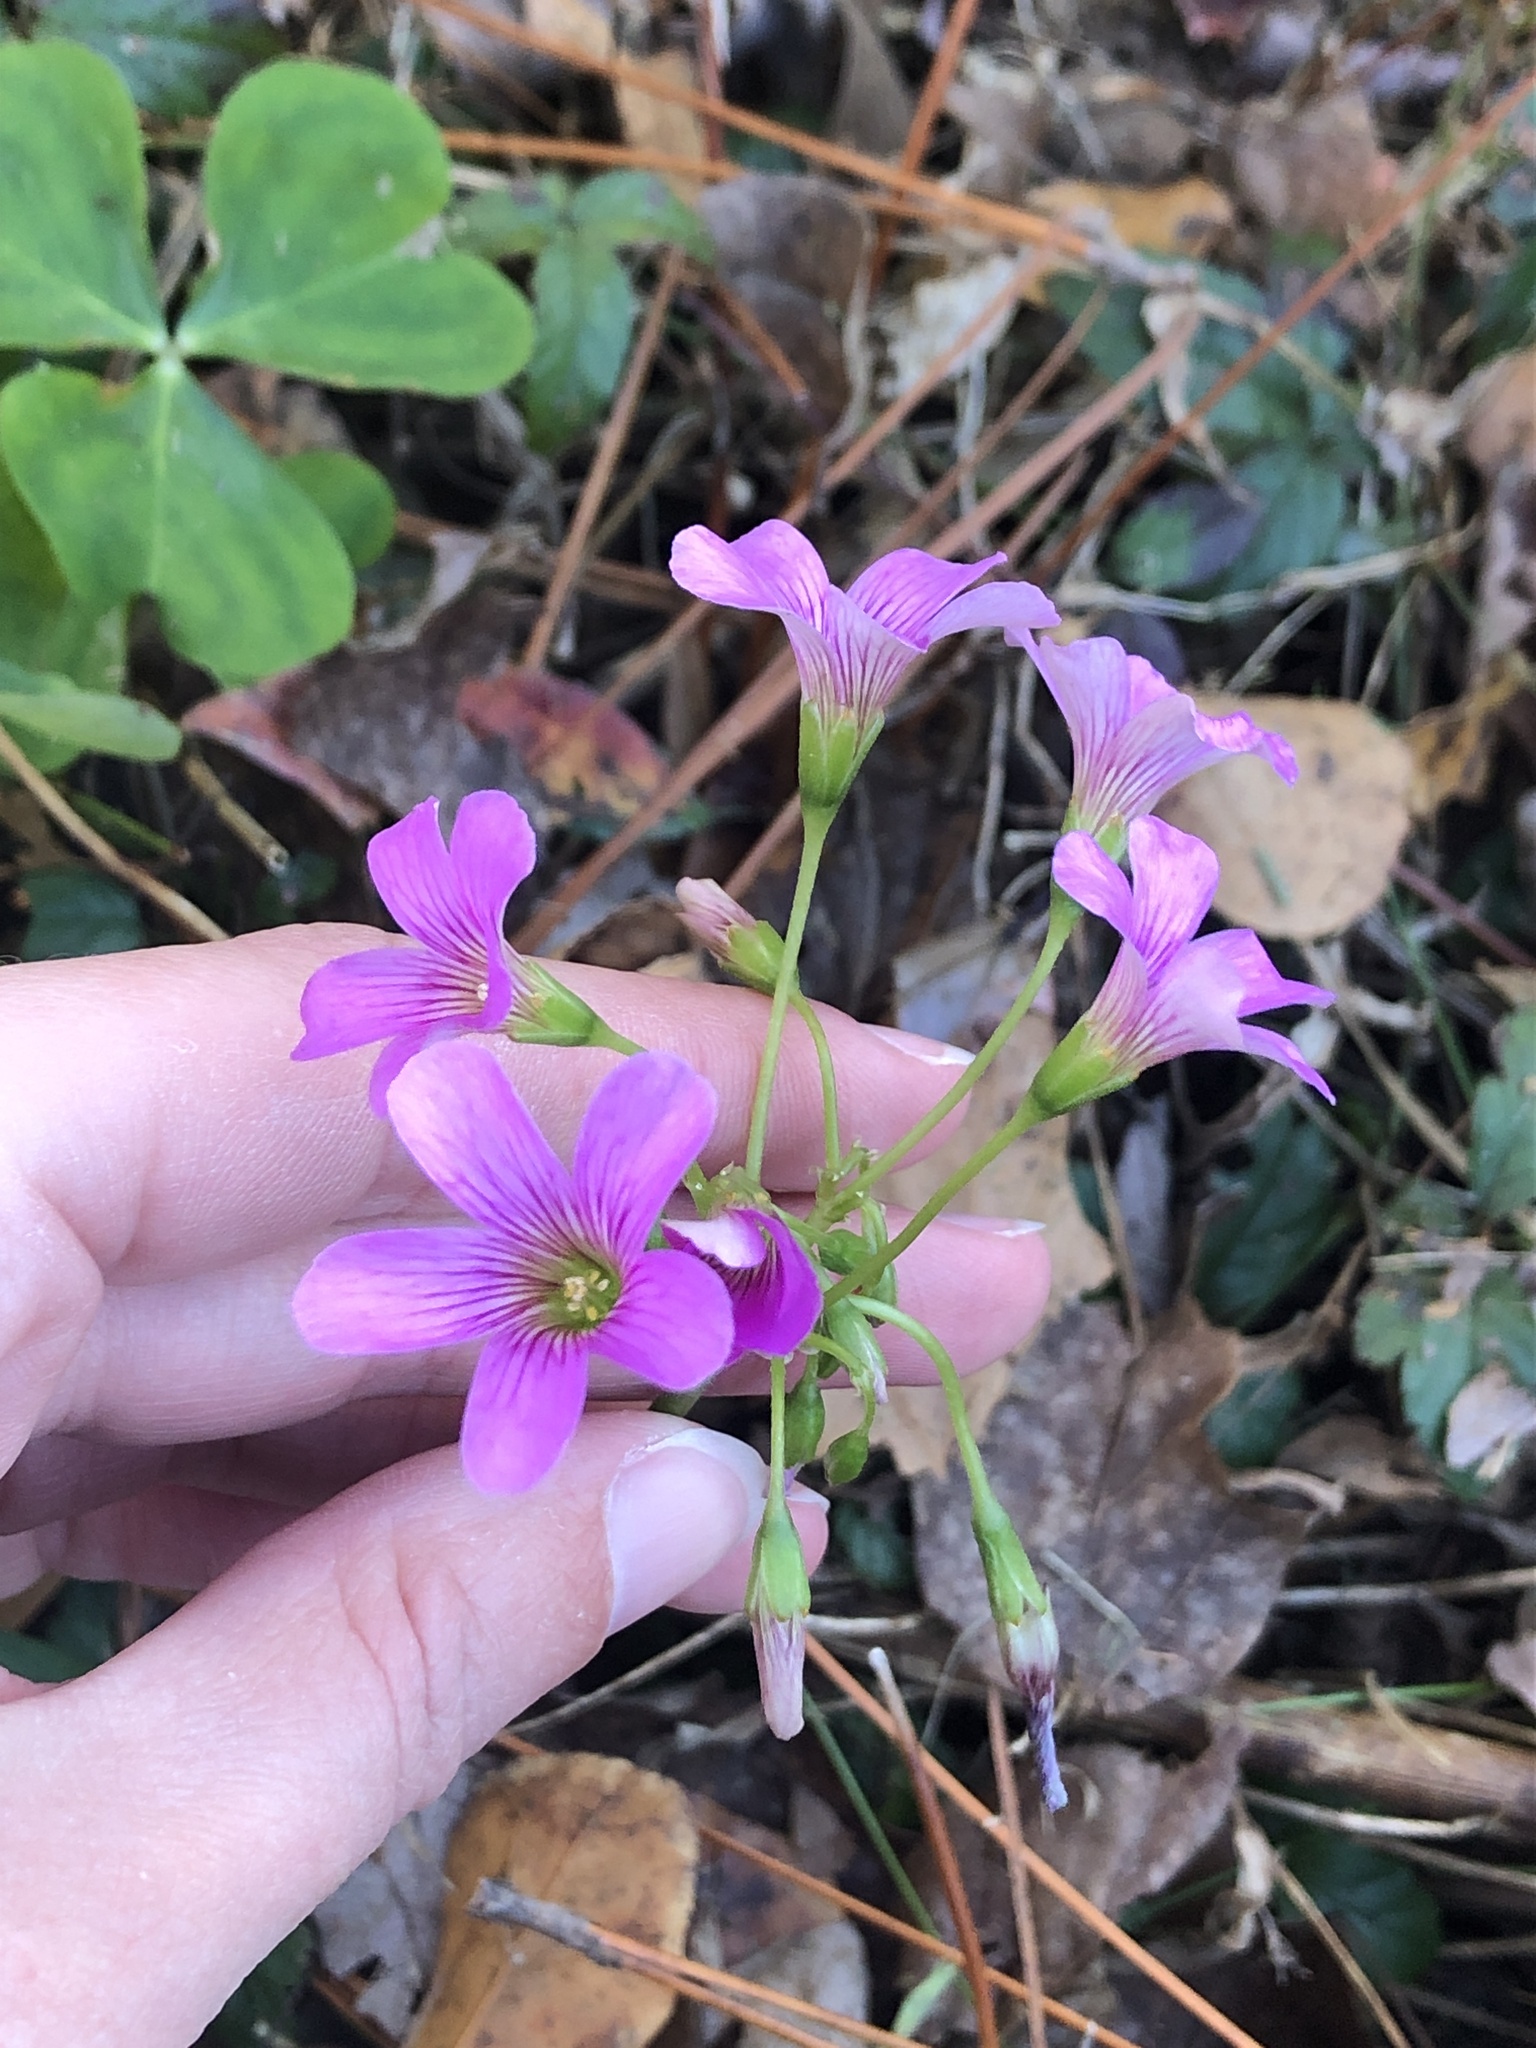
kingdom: Plantae
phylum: Tracheophyta
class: Magnoliopsida
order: Oxalidales
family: Oxalidaceae
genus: Oxalis
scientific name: Oxalis debilis
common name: Large-flowered pink-sorrel
